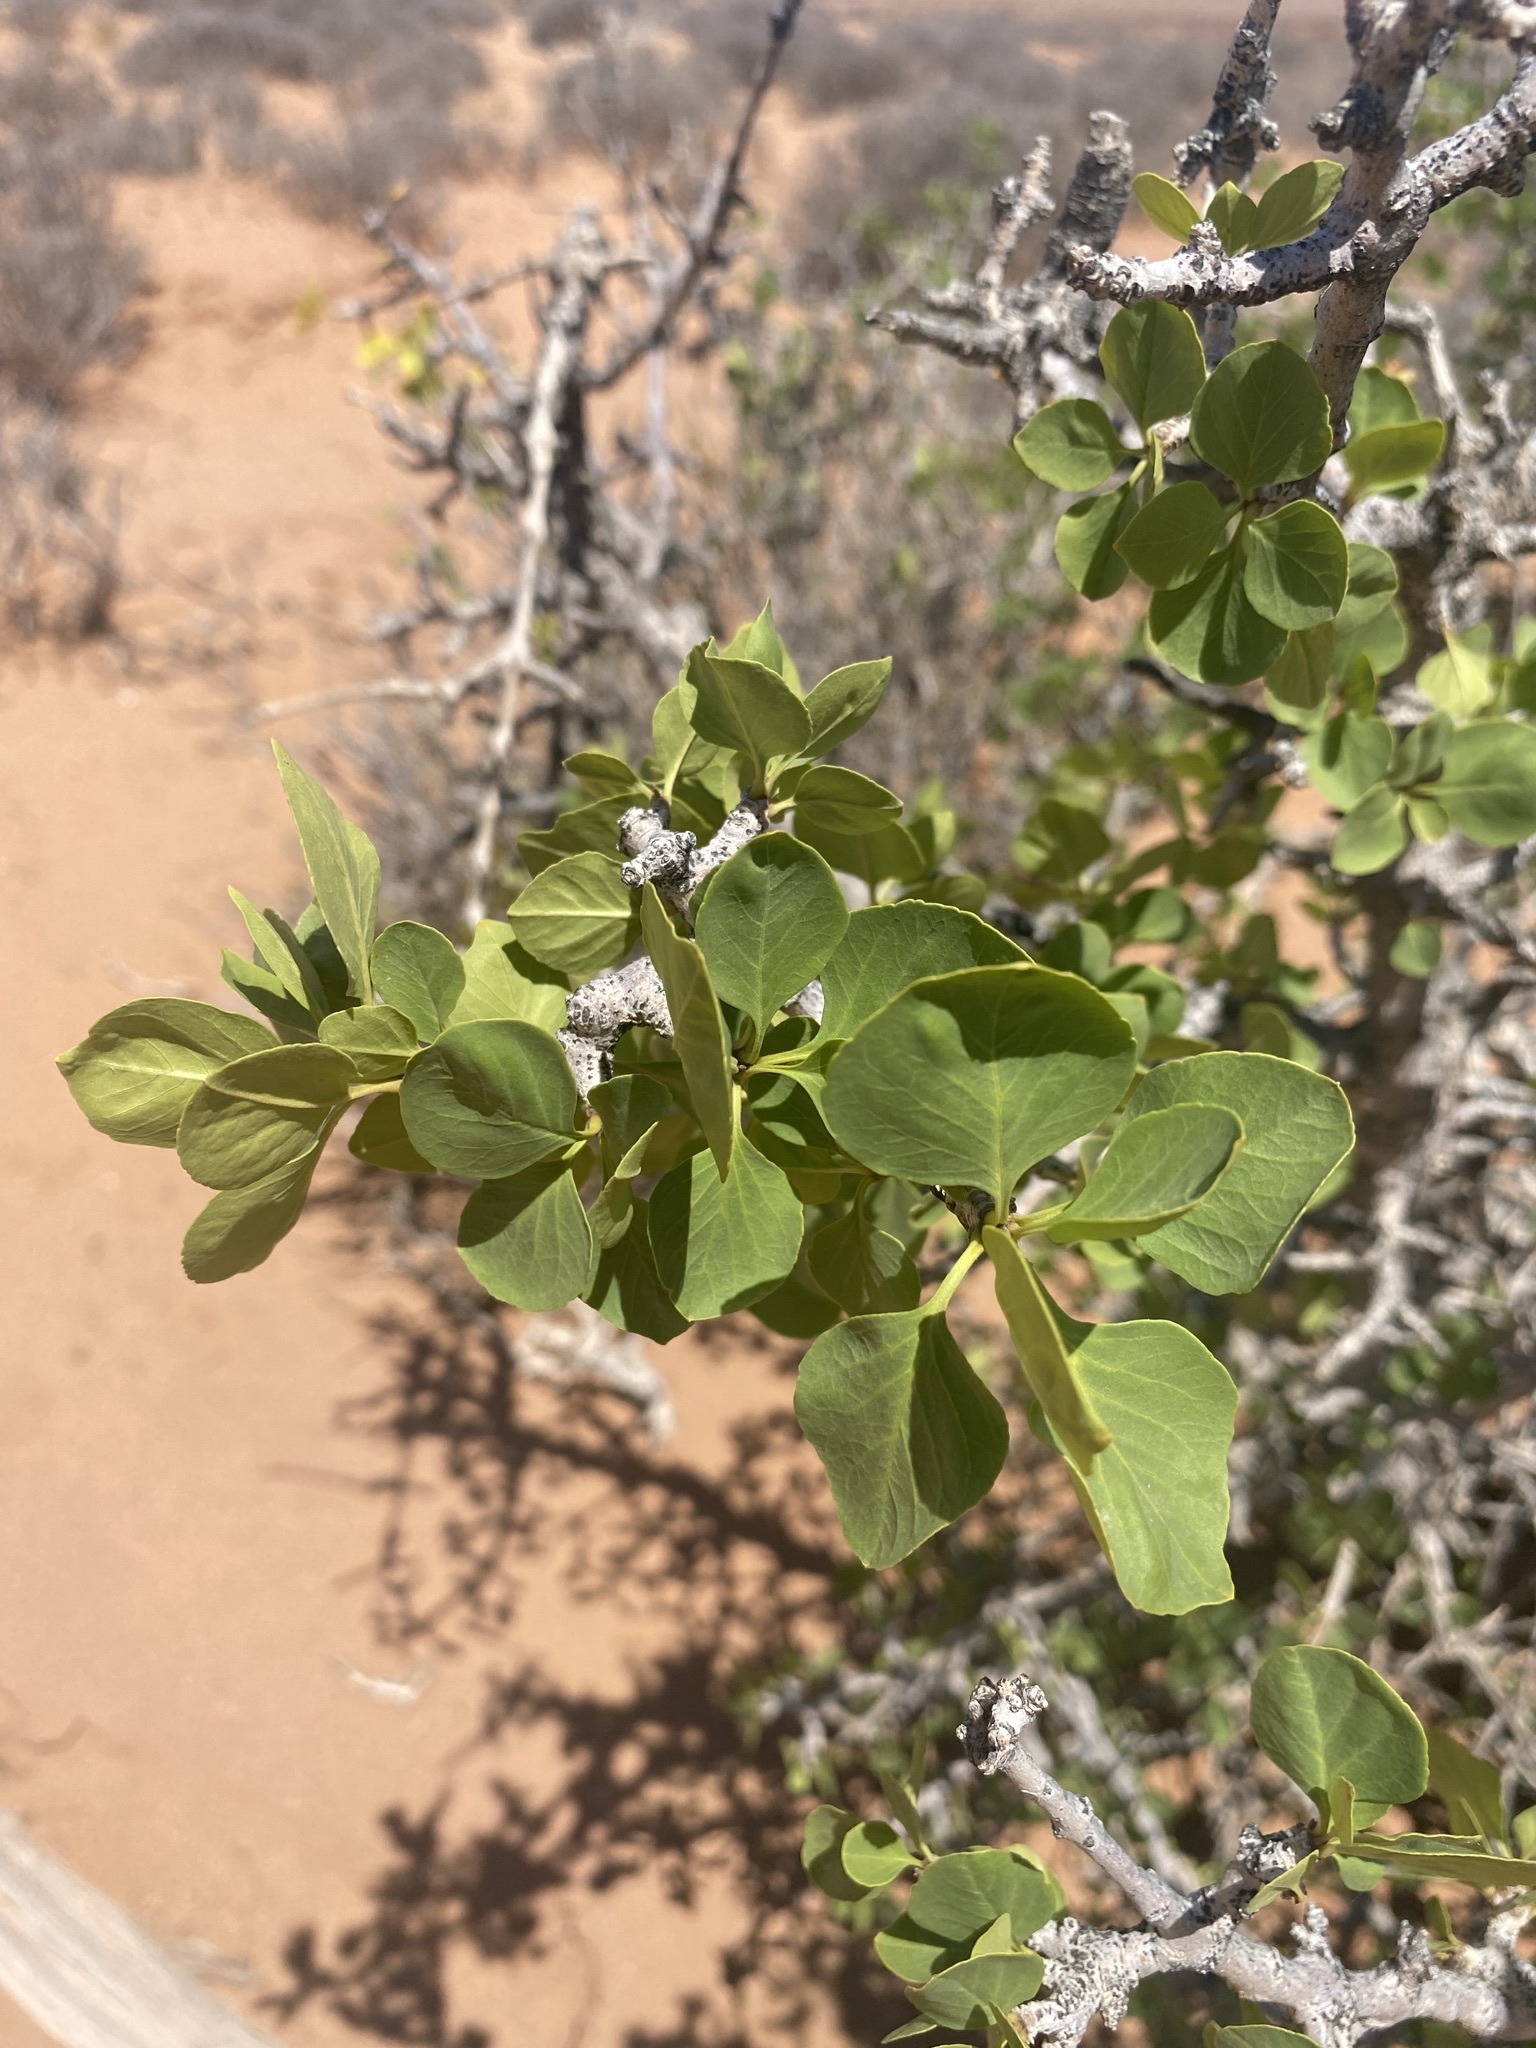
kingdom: Plantae
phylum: Tracheophyta
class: Magnoliopsida
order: Lamiales
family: Oleaceae
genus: Fraxinus
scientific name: Fraxinus anomala
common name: Utah ash
